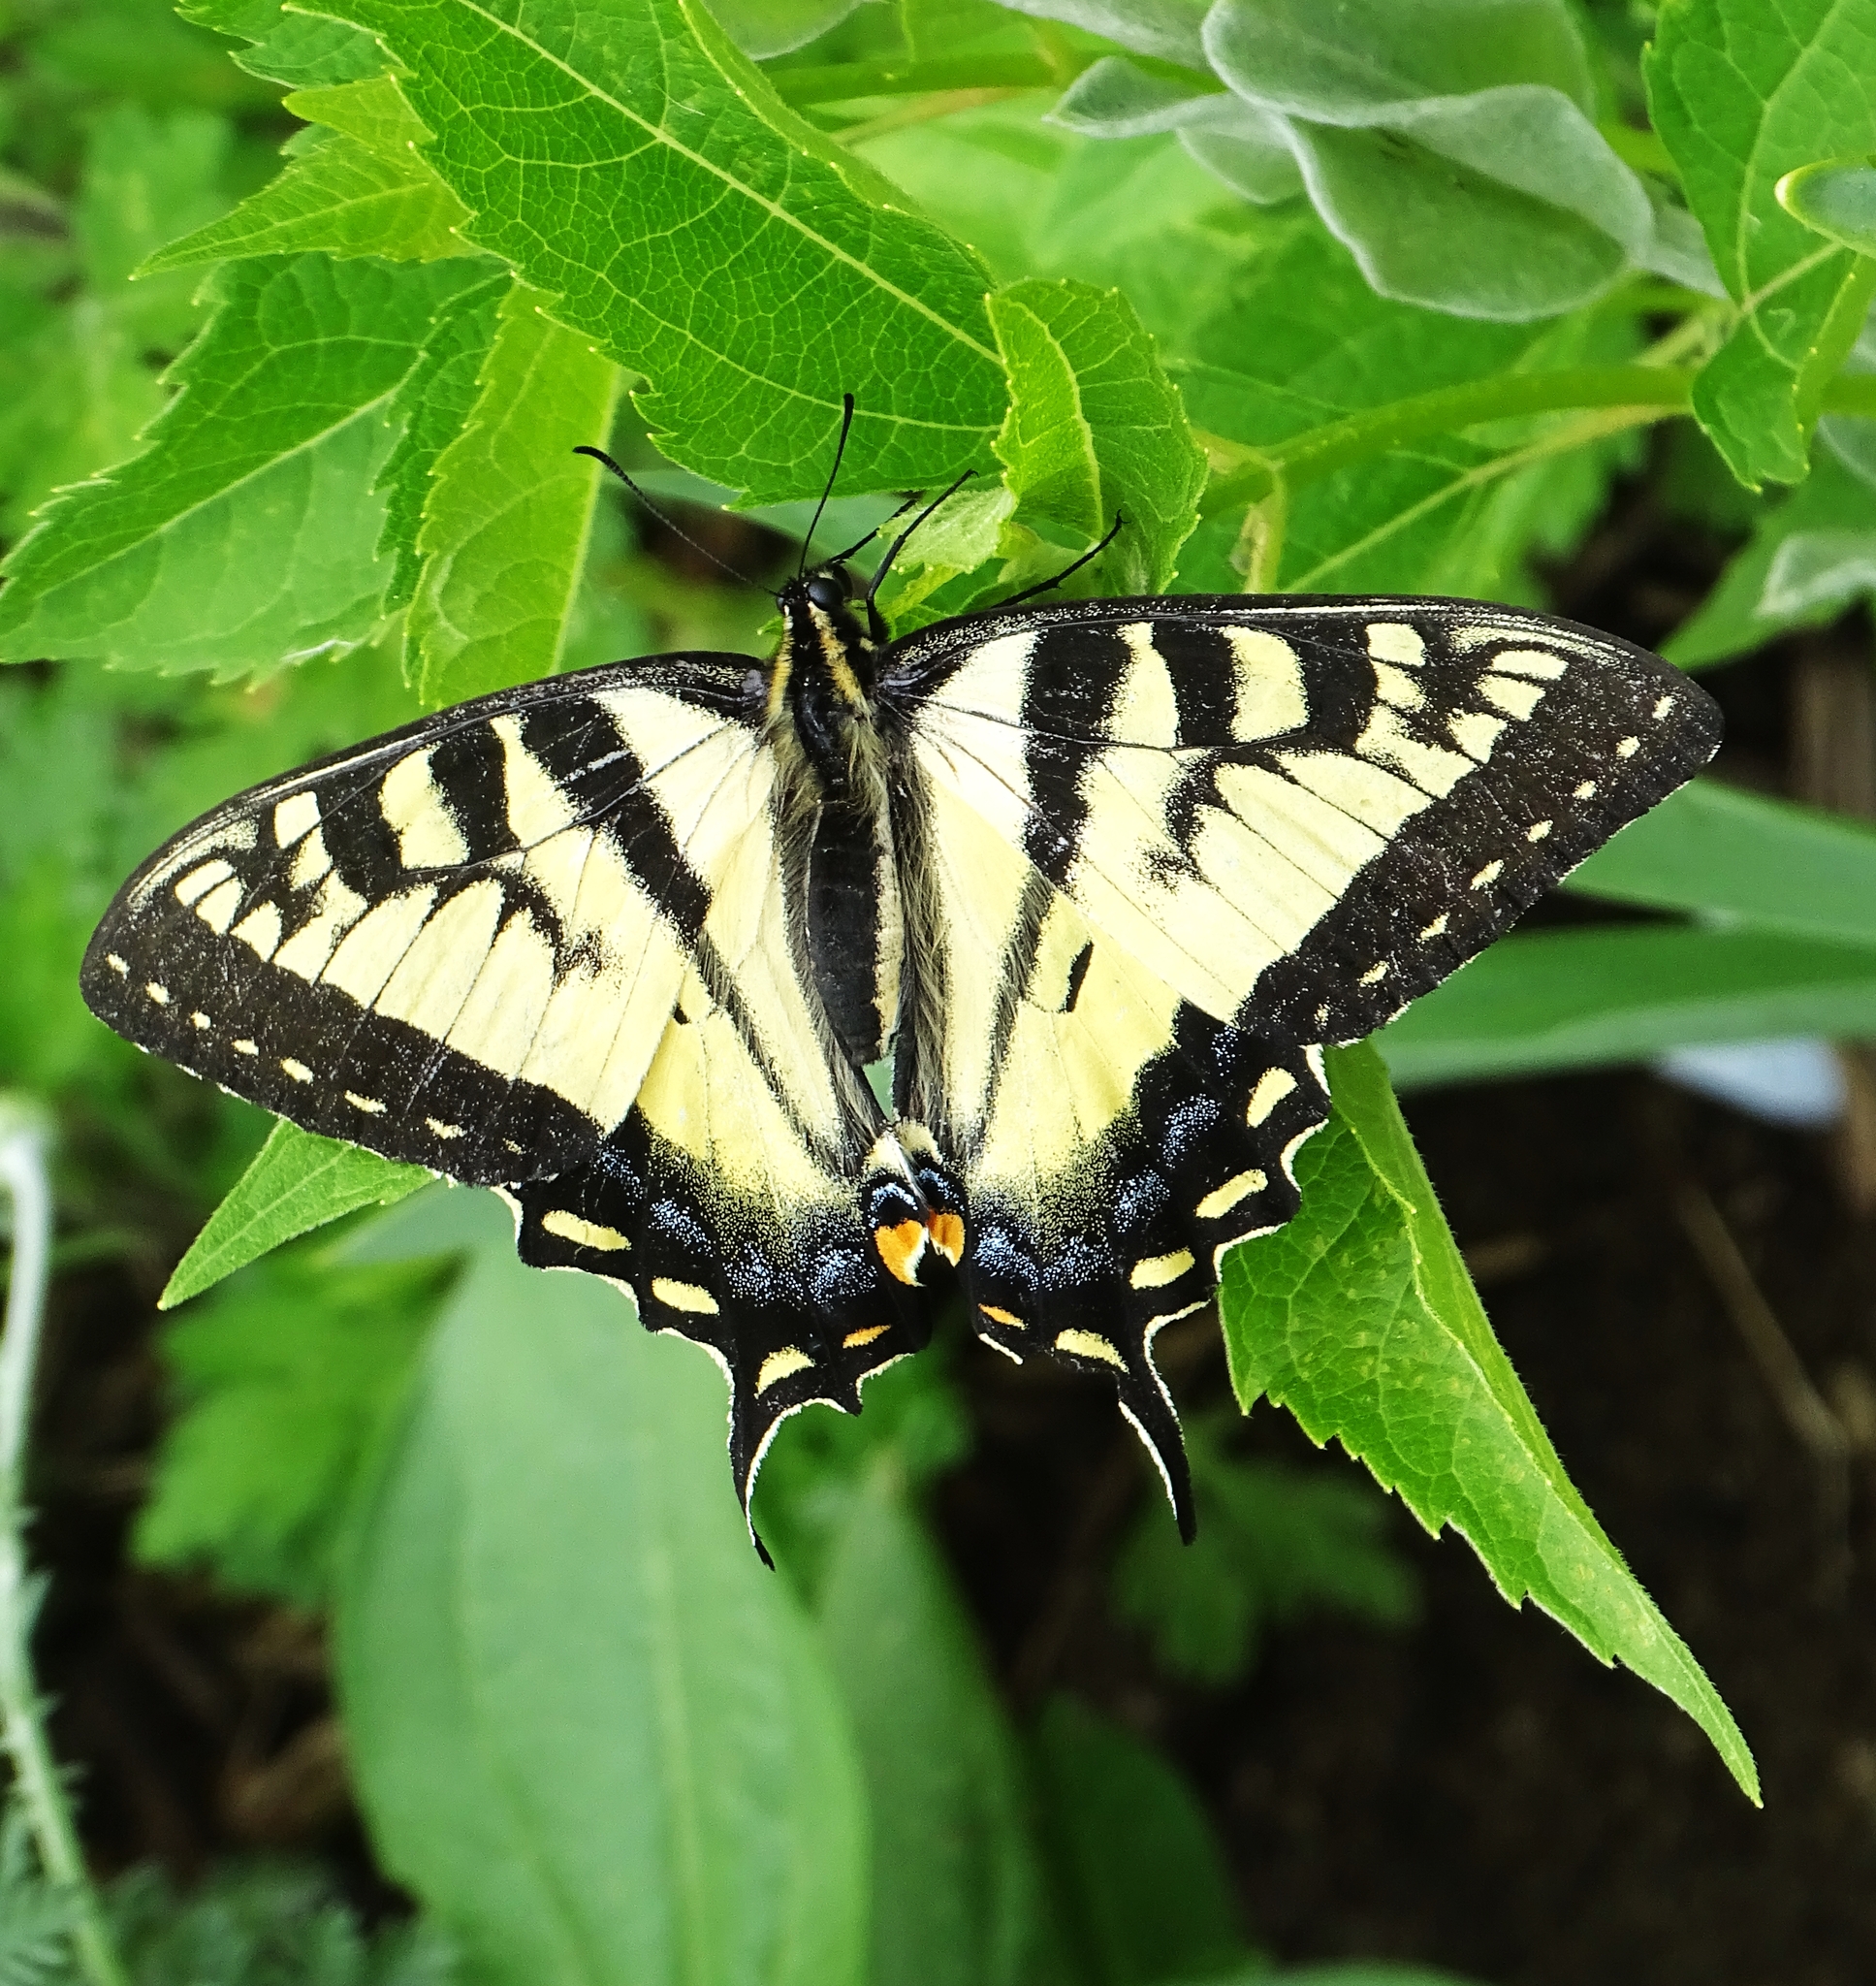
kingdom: Animalia
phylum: Arthropoda
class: Insecta
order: Lepidoptera
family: Papilionidae
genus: Papilio
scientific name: Papilio canadensis
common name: Canadian tiger swallowtail
